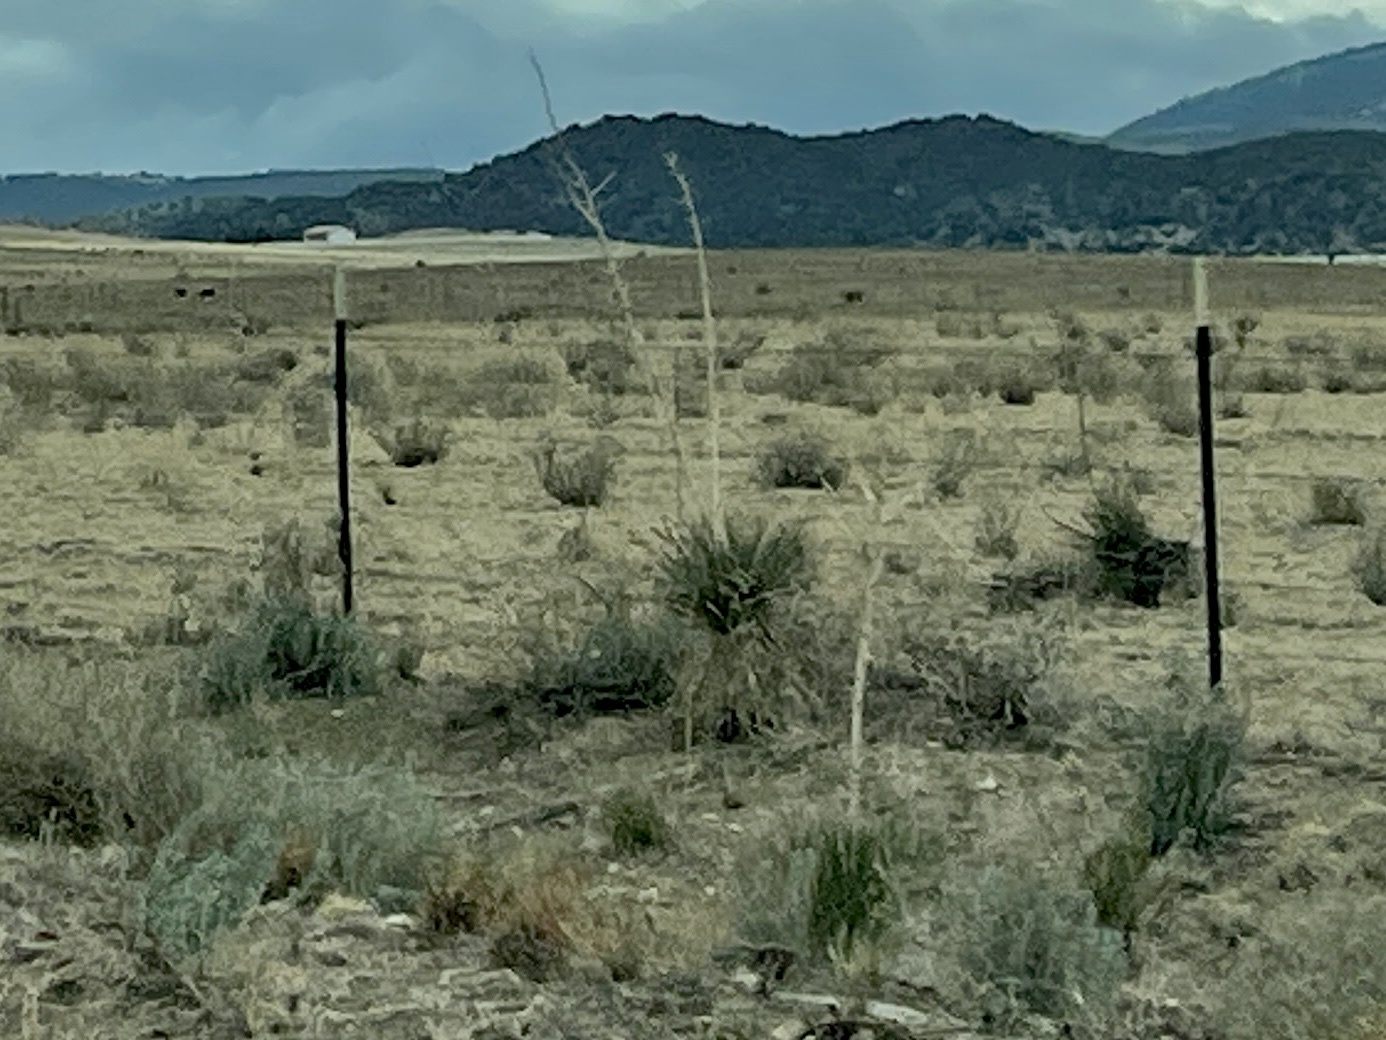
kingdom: Plantae
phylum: Tracheophyta
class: Liliopsida
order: Asparagales
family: Asparagaceae
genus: Yucca
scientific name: Yucca elata
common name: Palmella
